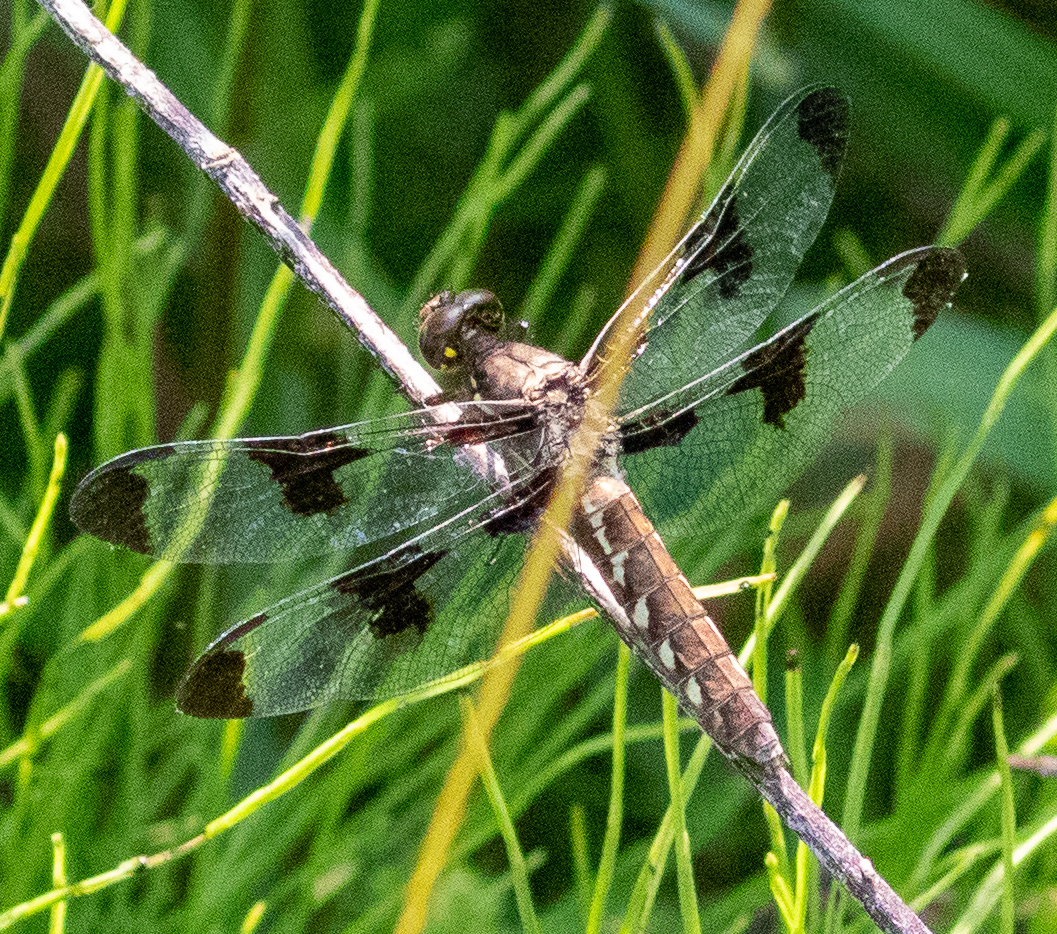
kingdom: Animalia
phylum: Arthropoda
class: Insecta
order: Odonata
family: Libellulidae
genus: Plathemis
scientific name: Plathemis lydia
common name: Common whitetail
